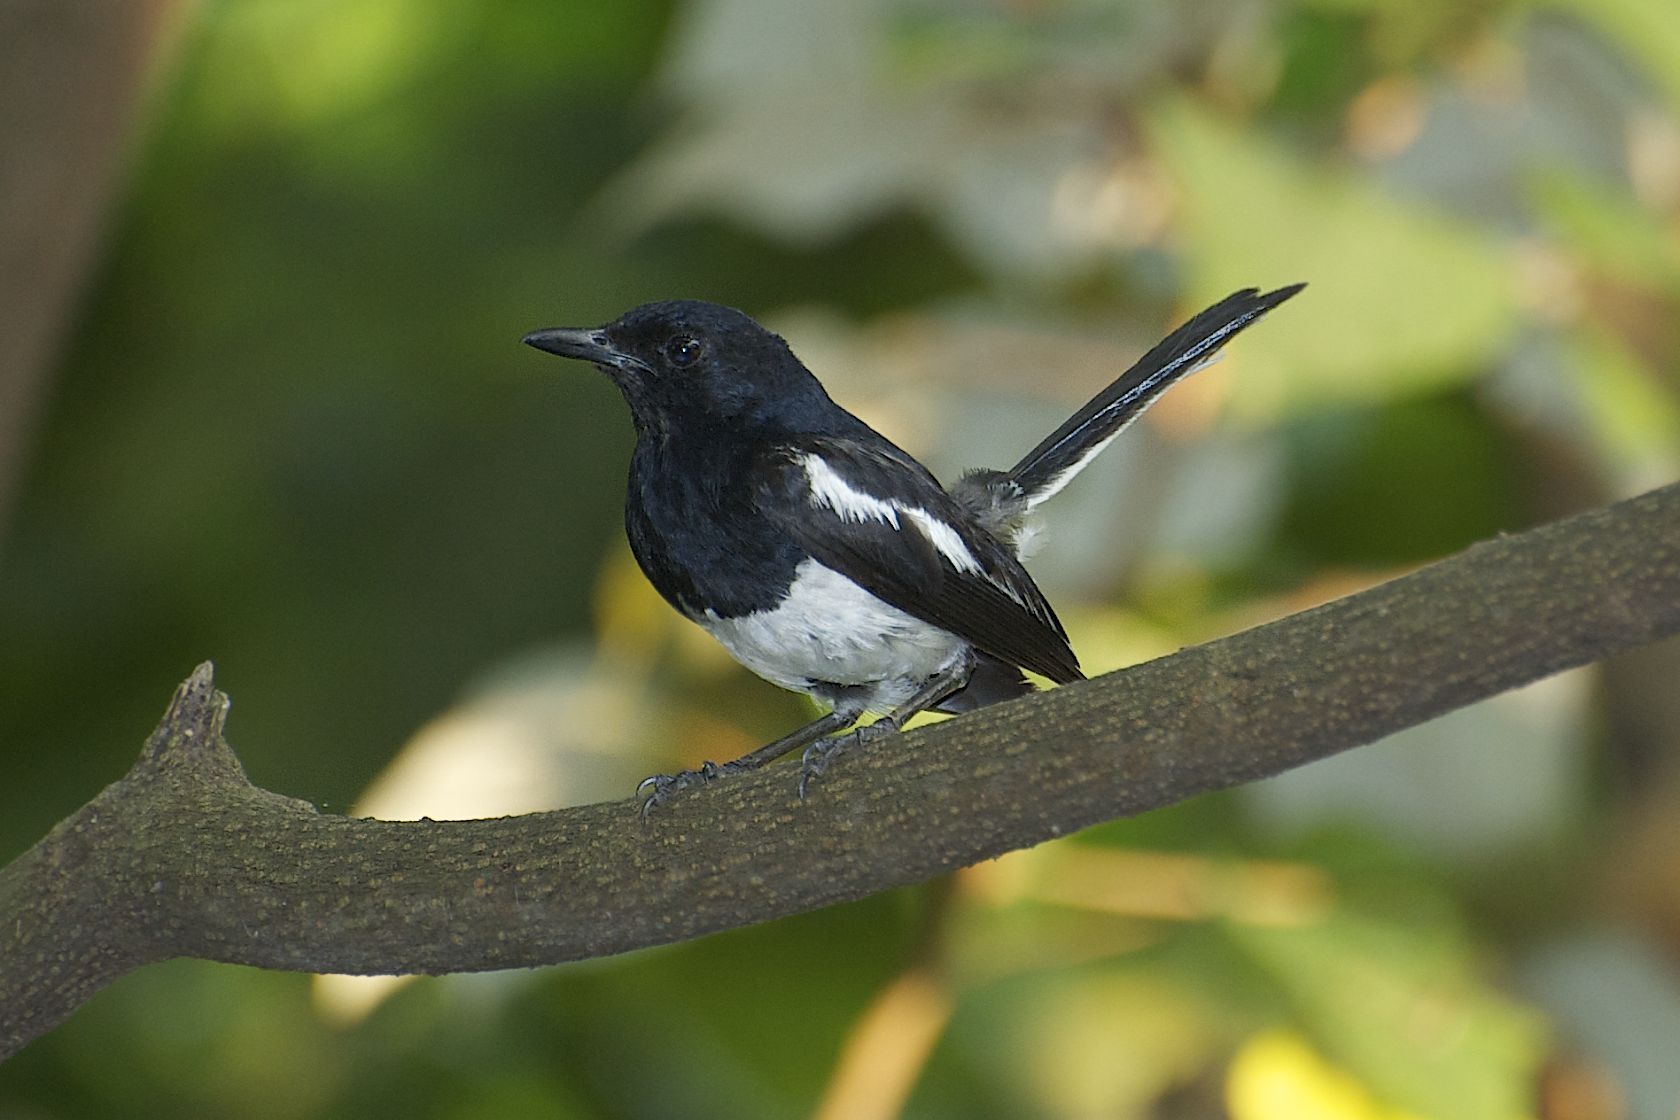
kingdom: Animalia
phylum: Chordata
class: Aves
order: Passeriformes
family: Muscicapidae
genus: Copsychus
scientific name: Copsychus saularis
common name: Oriental magpie-robin
